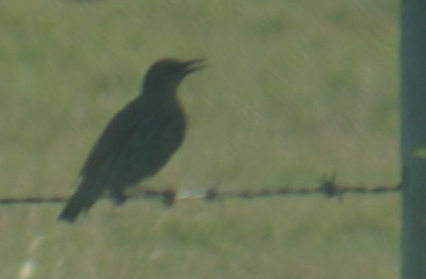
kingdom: Animalia
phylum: Chordata
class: Aves
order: Passeriformes
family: Sturnidae
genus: Sturnus
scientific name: Sturnus vulgaris
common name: Common starling
